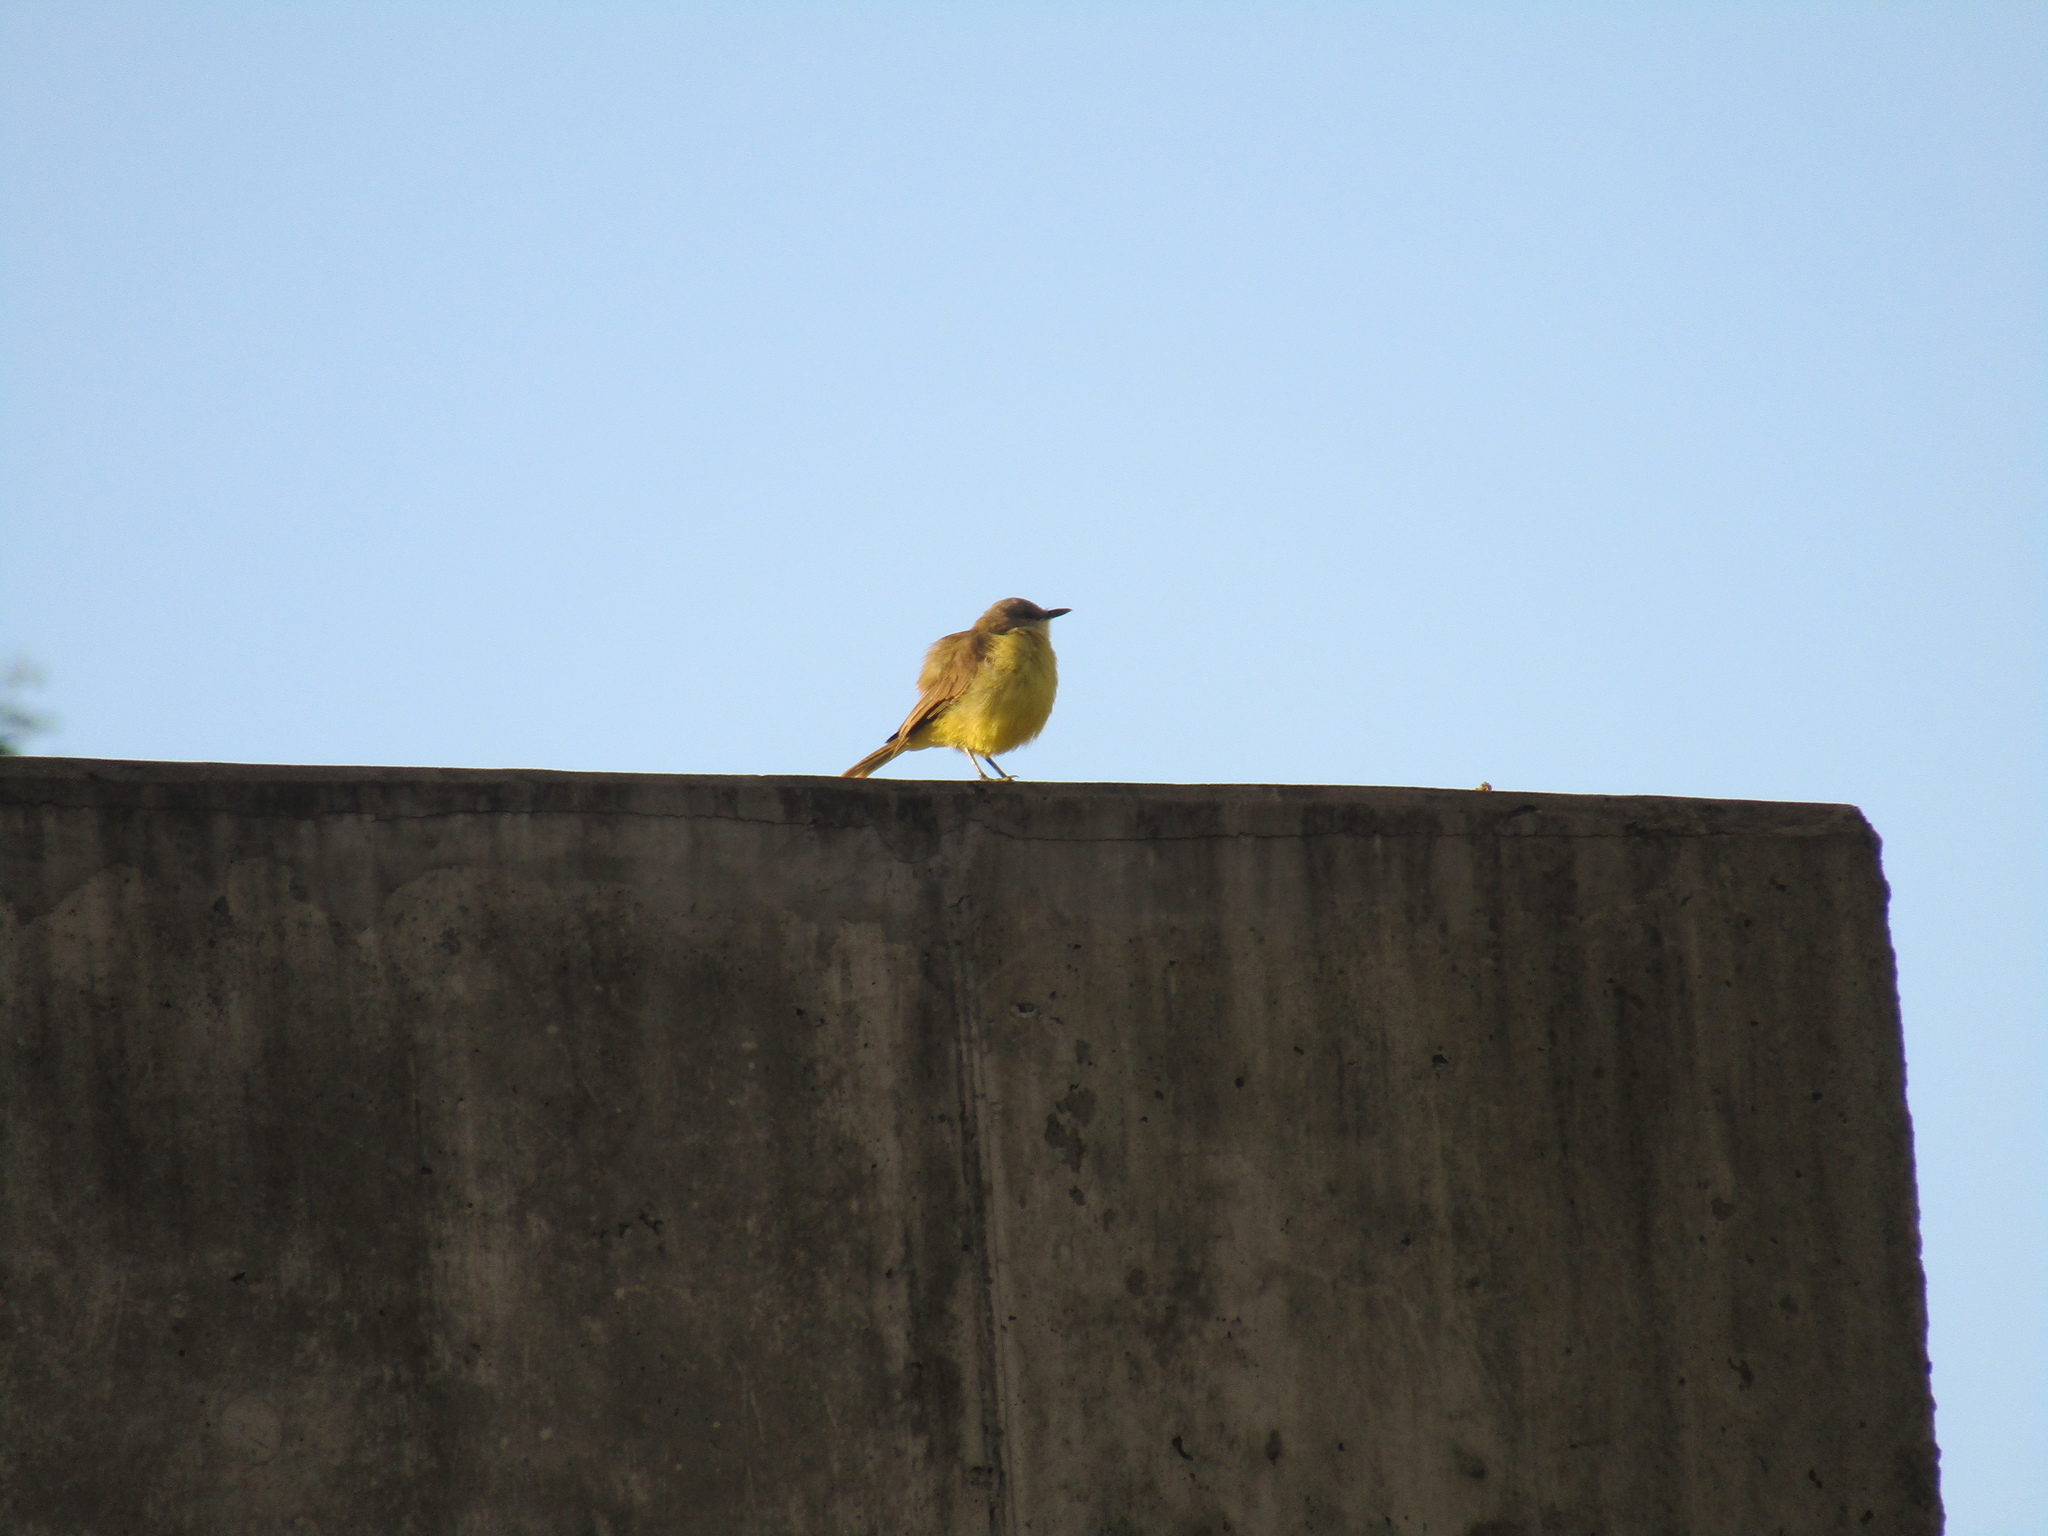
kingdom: Animalia
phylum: Chordata
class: Aves
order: Passeriformes
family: Tyrannidae
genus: Machetornis
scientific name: Machetornis rixosa
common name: Cattle tyrant
